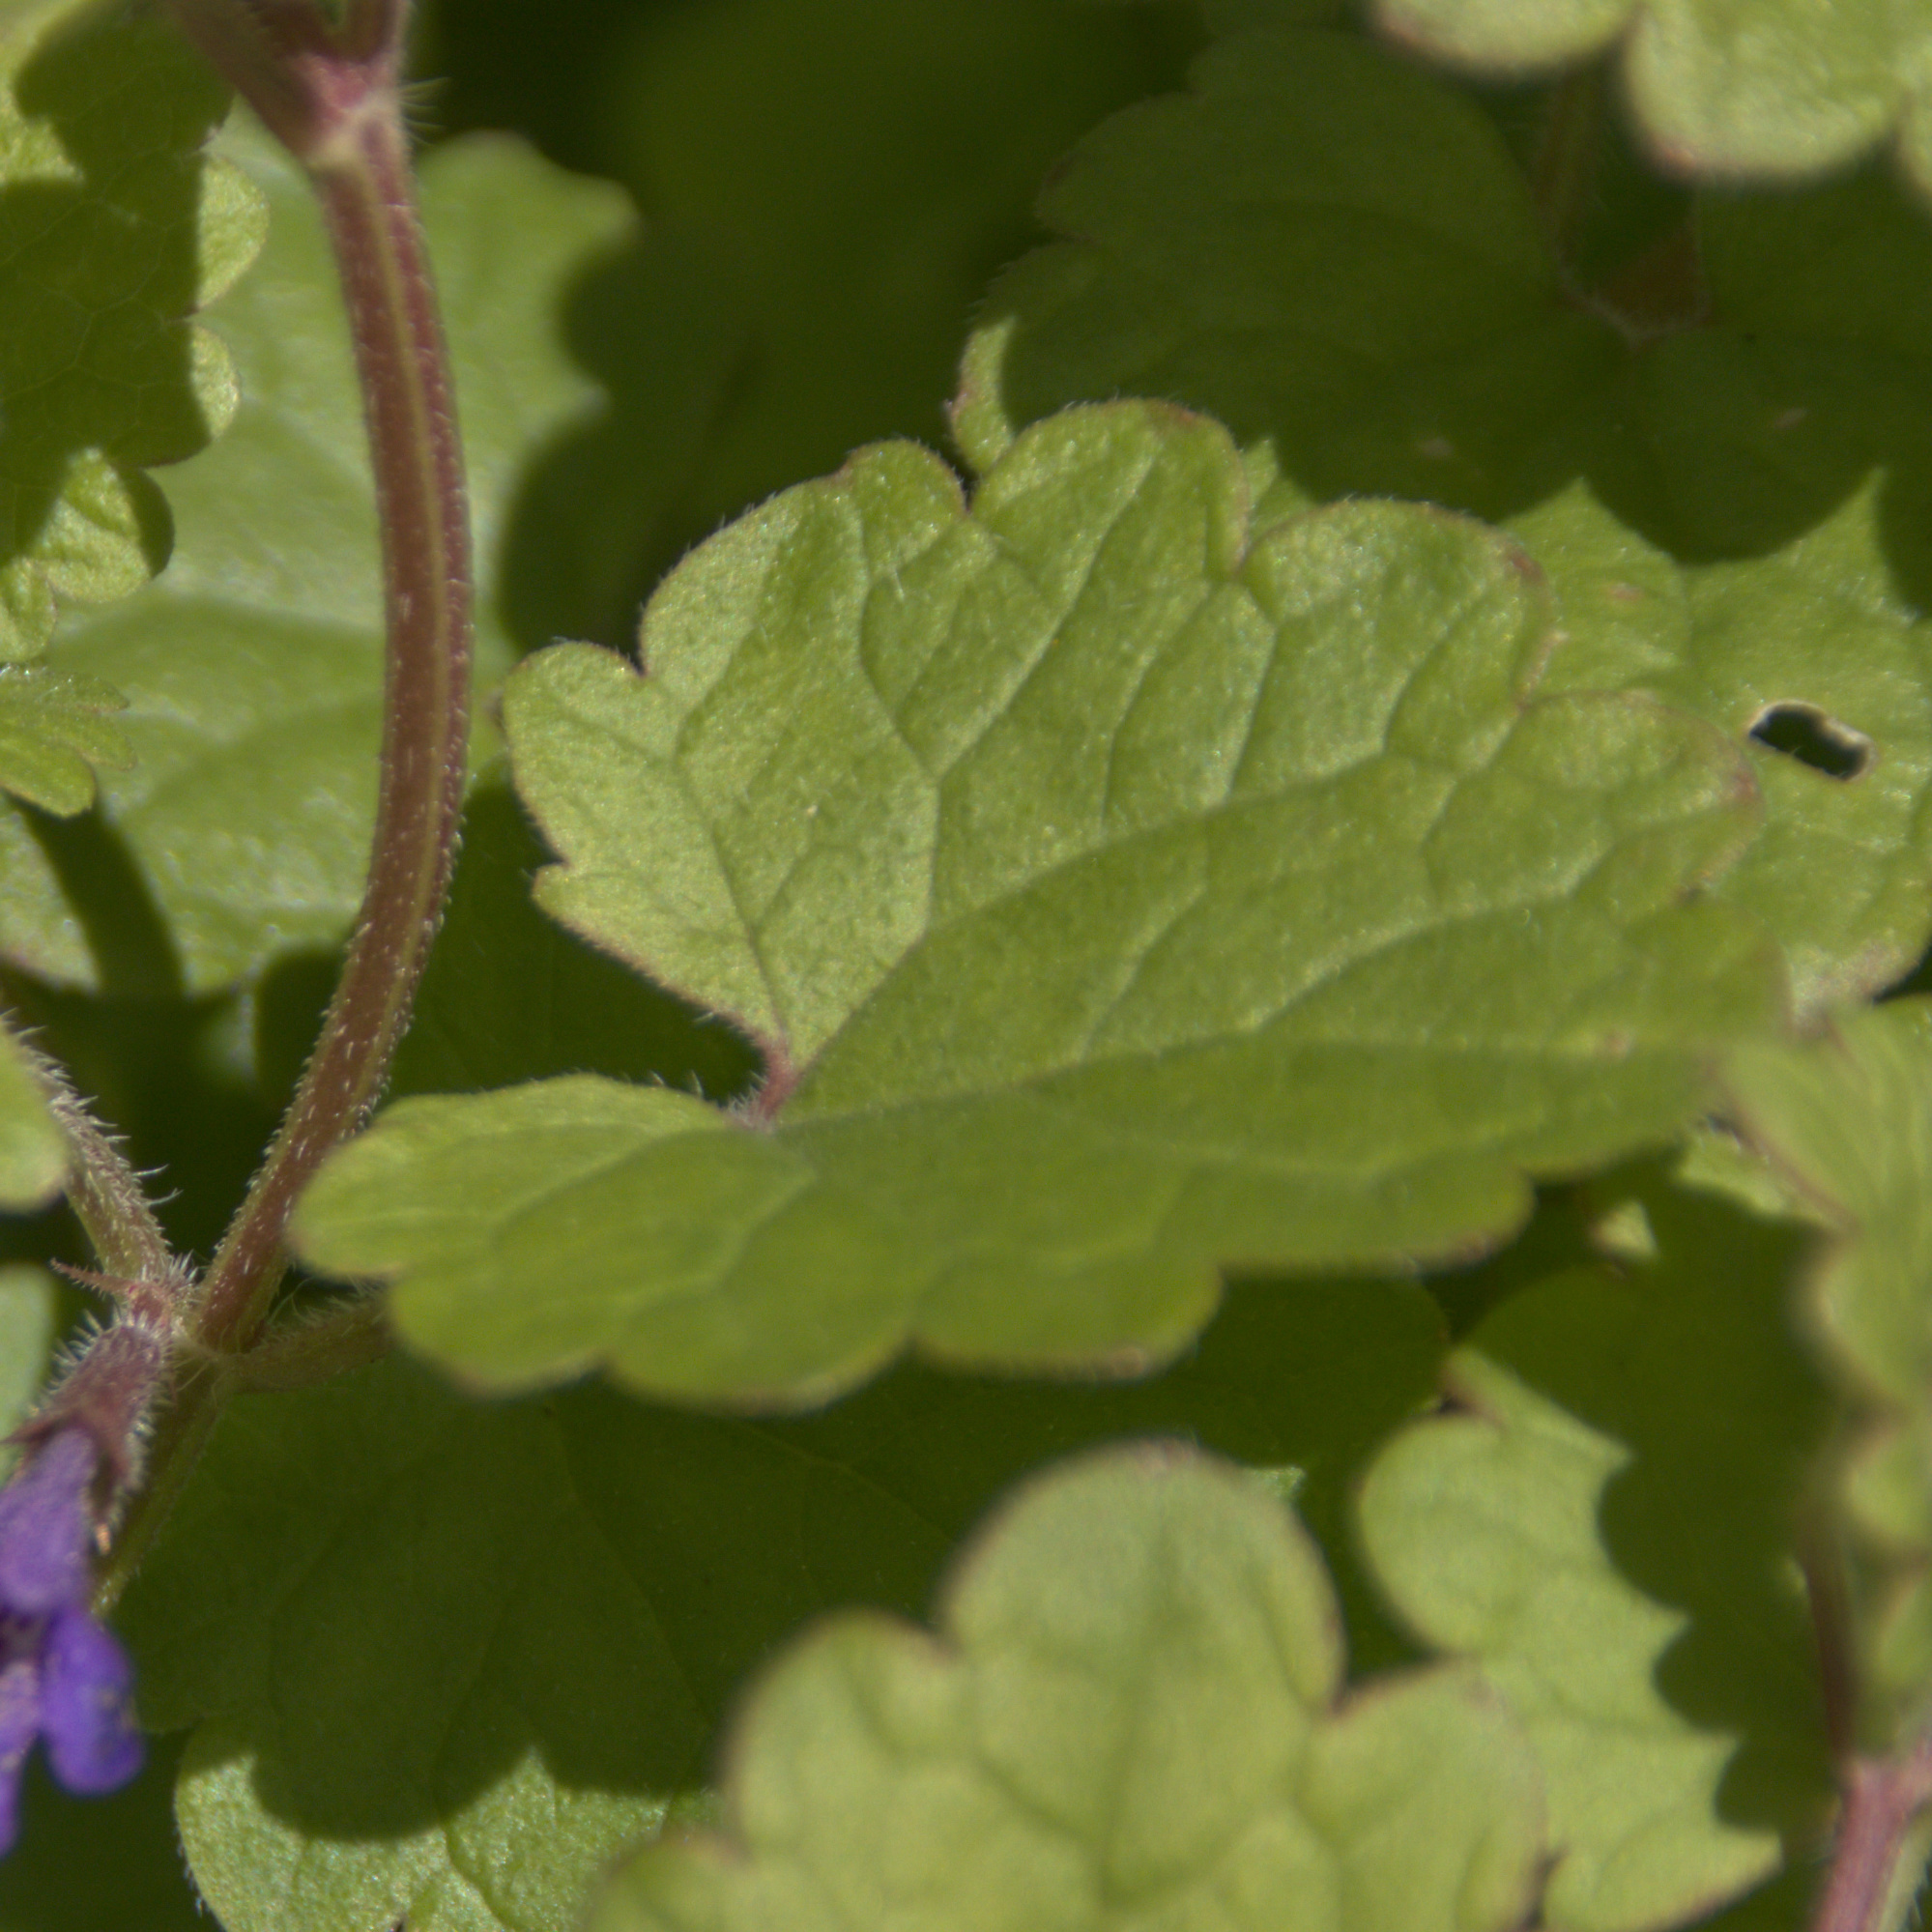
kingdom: Plantae
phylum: Tracheophyta
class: Magnoliopsida
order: Lamiales
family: Lamiaceae
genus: Glechoma
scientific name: Glechoma hederacea
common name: Ground ivy
